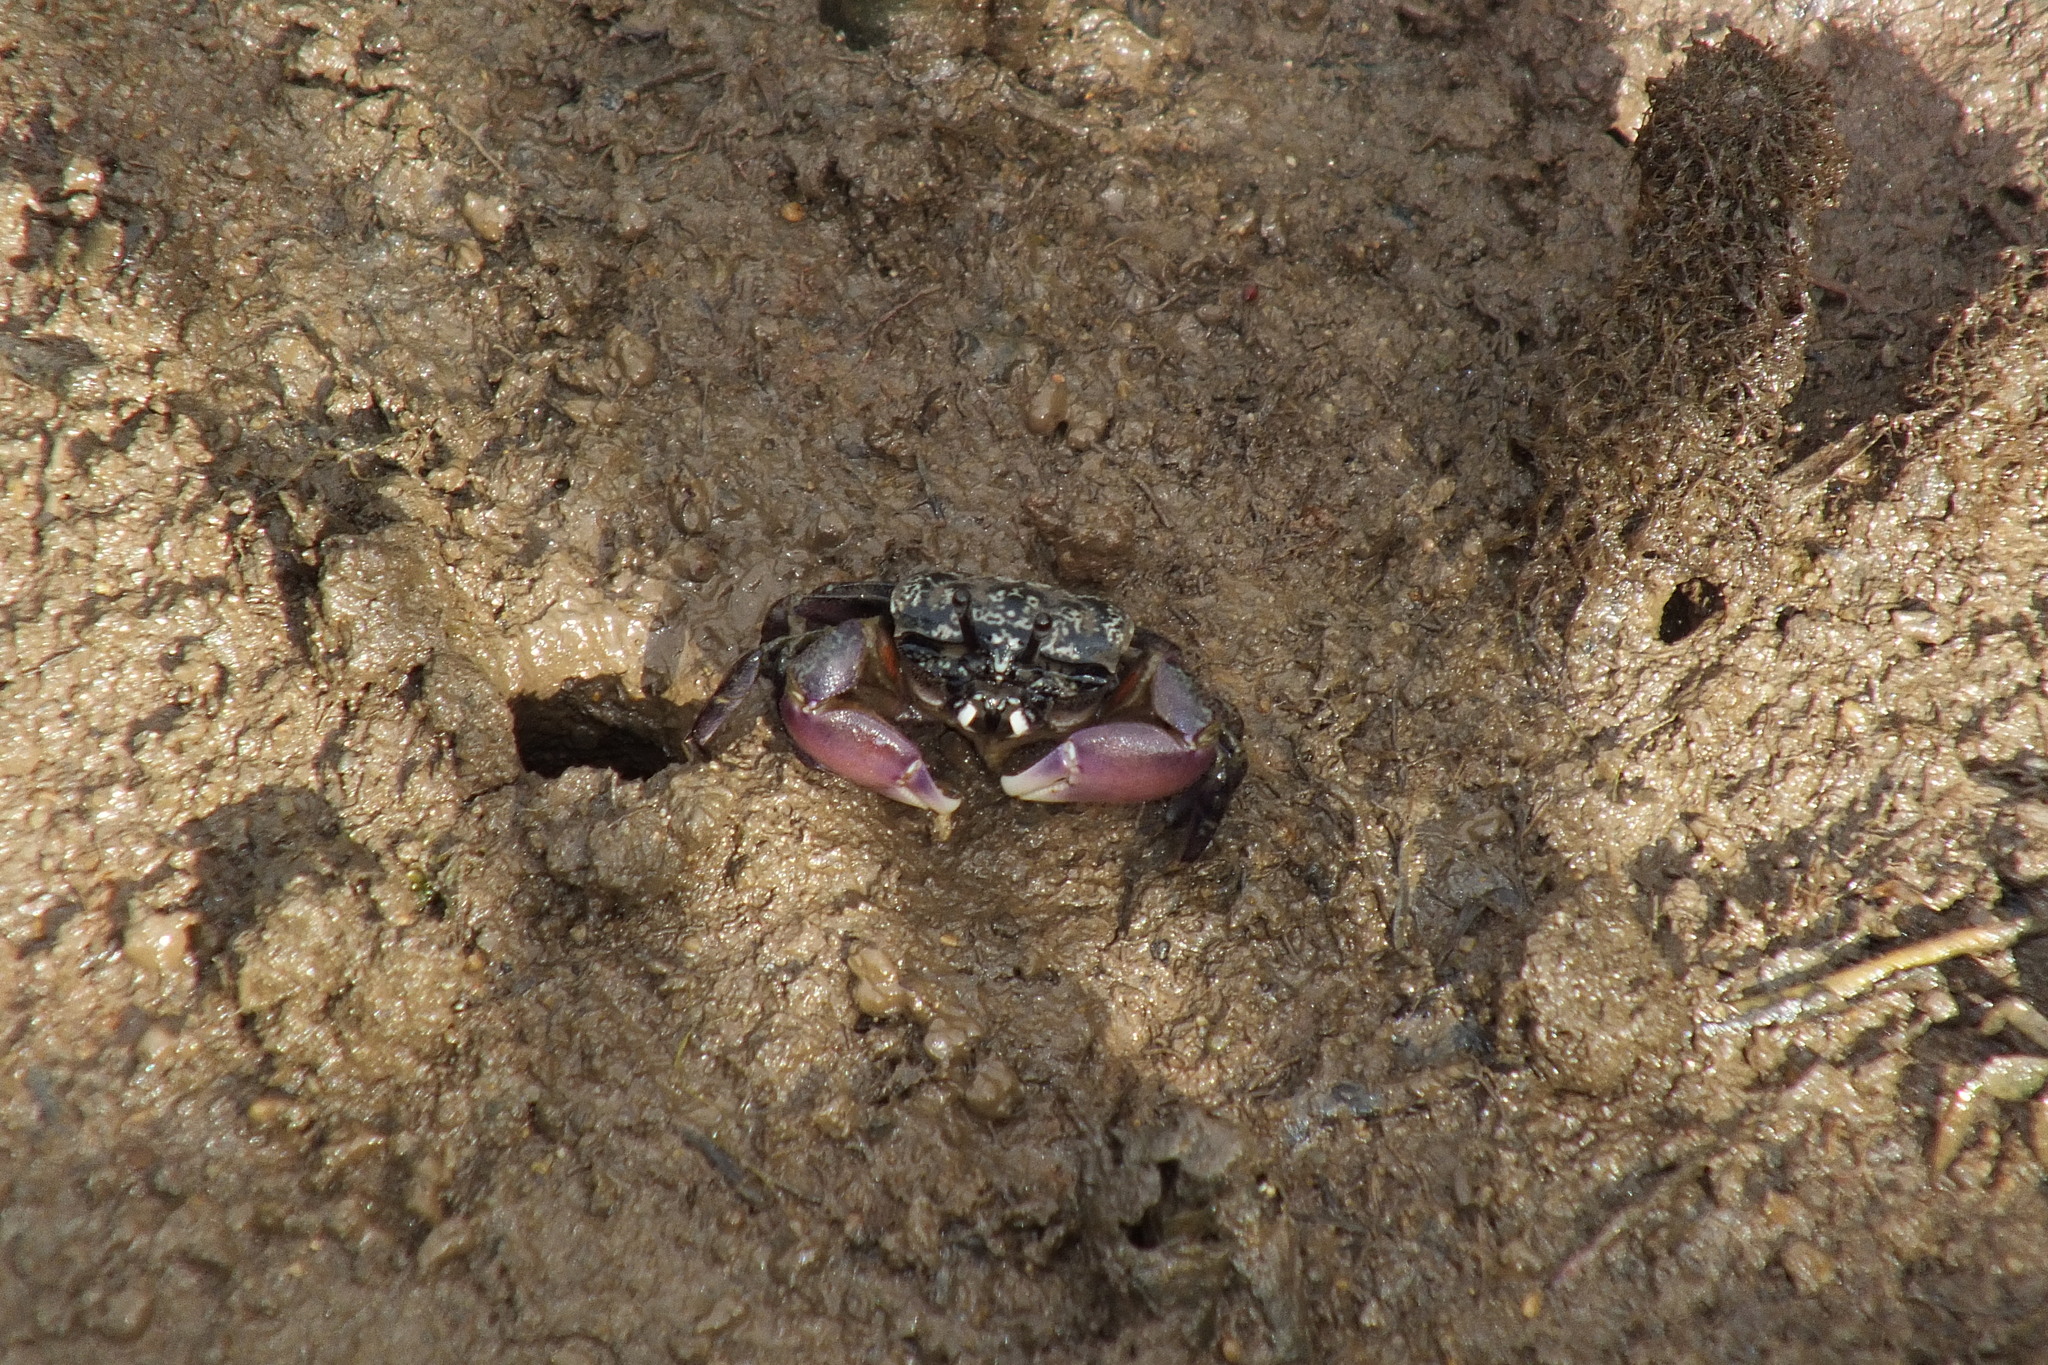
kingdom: Animalia
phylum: Arthropoda
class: Malacostraca
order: Decapoda
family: Heloeciidae
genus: Heloecius
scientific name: Heloecius cordiformis
